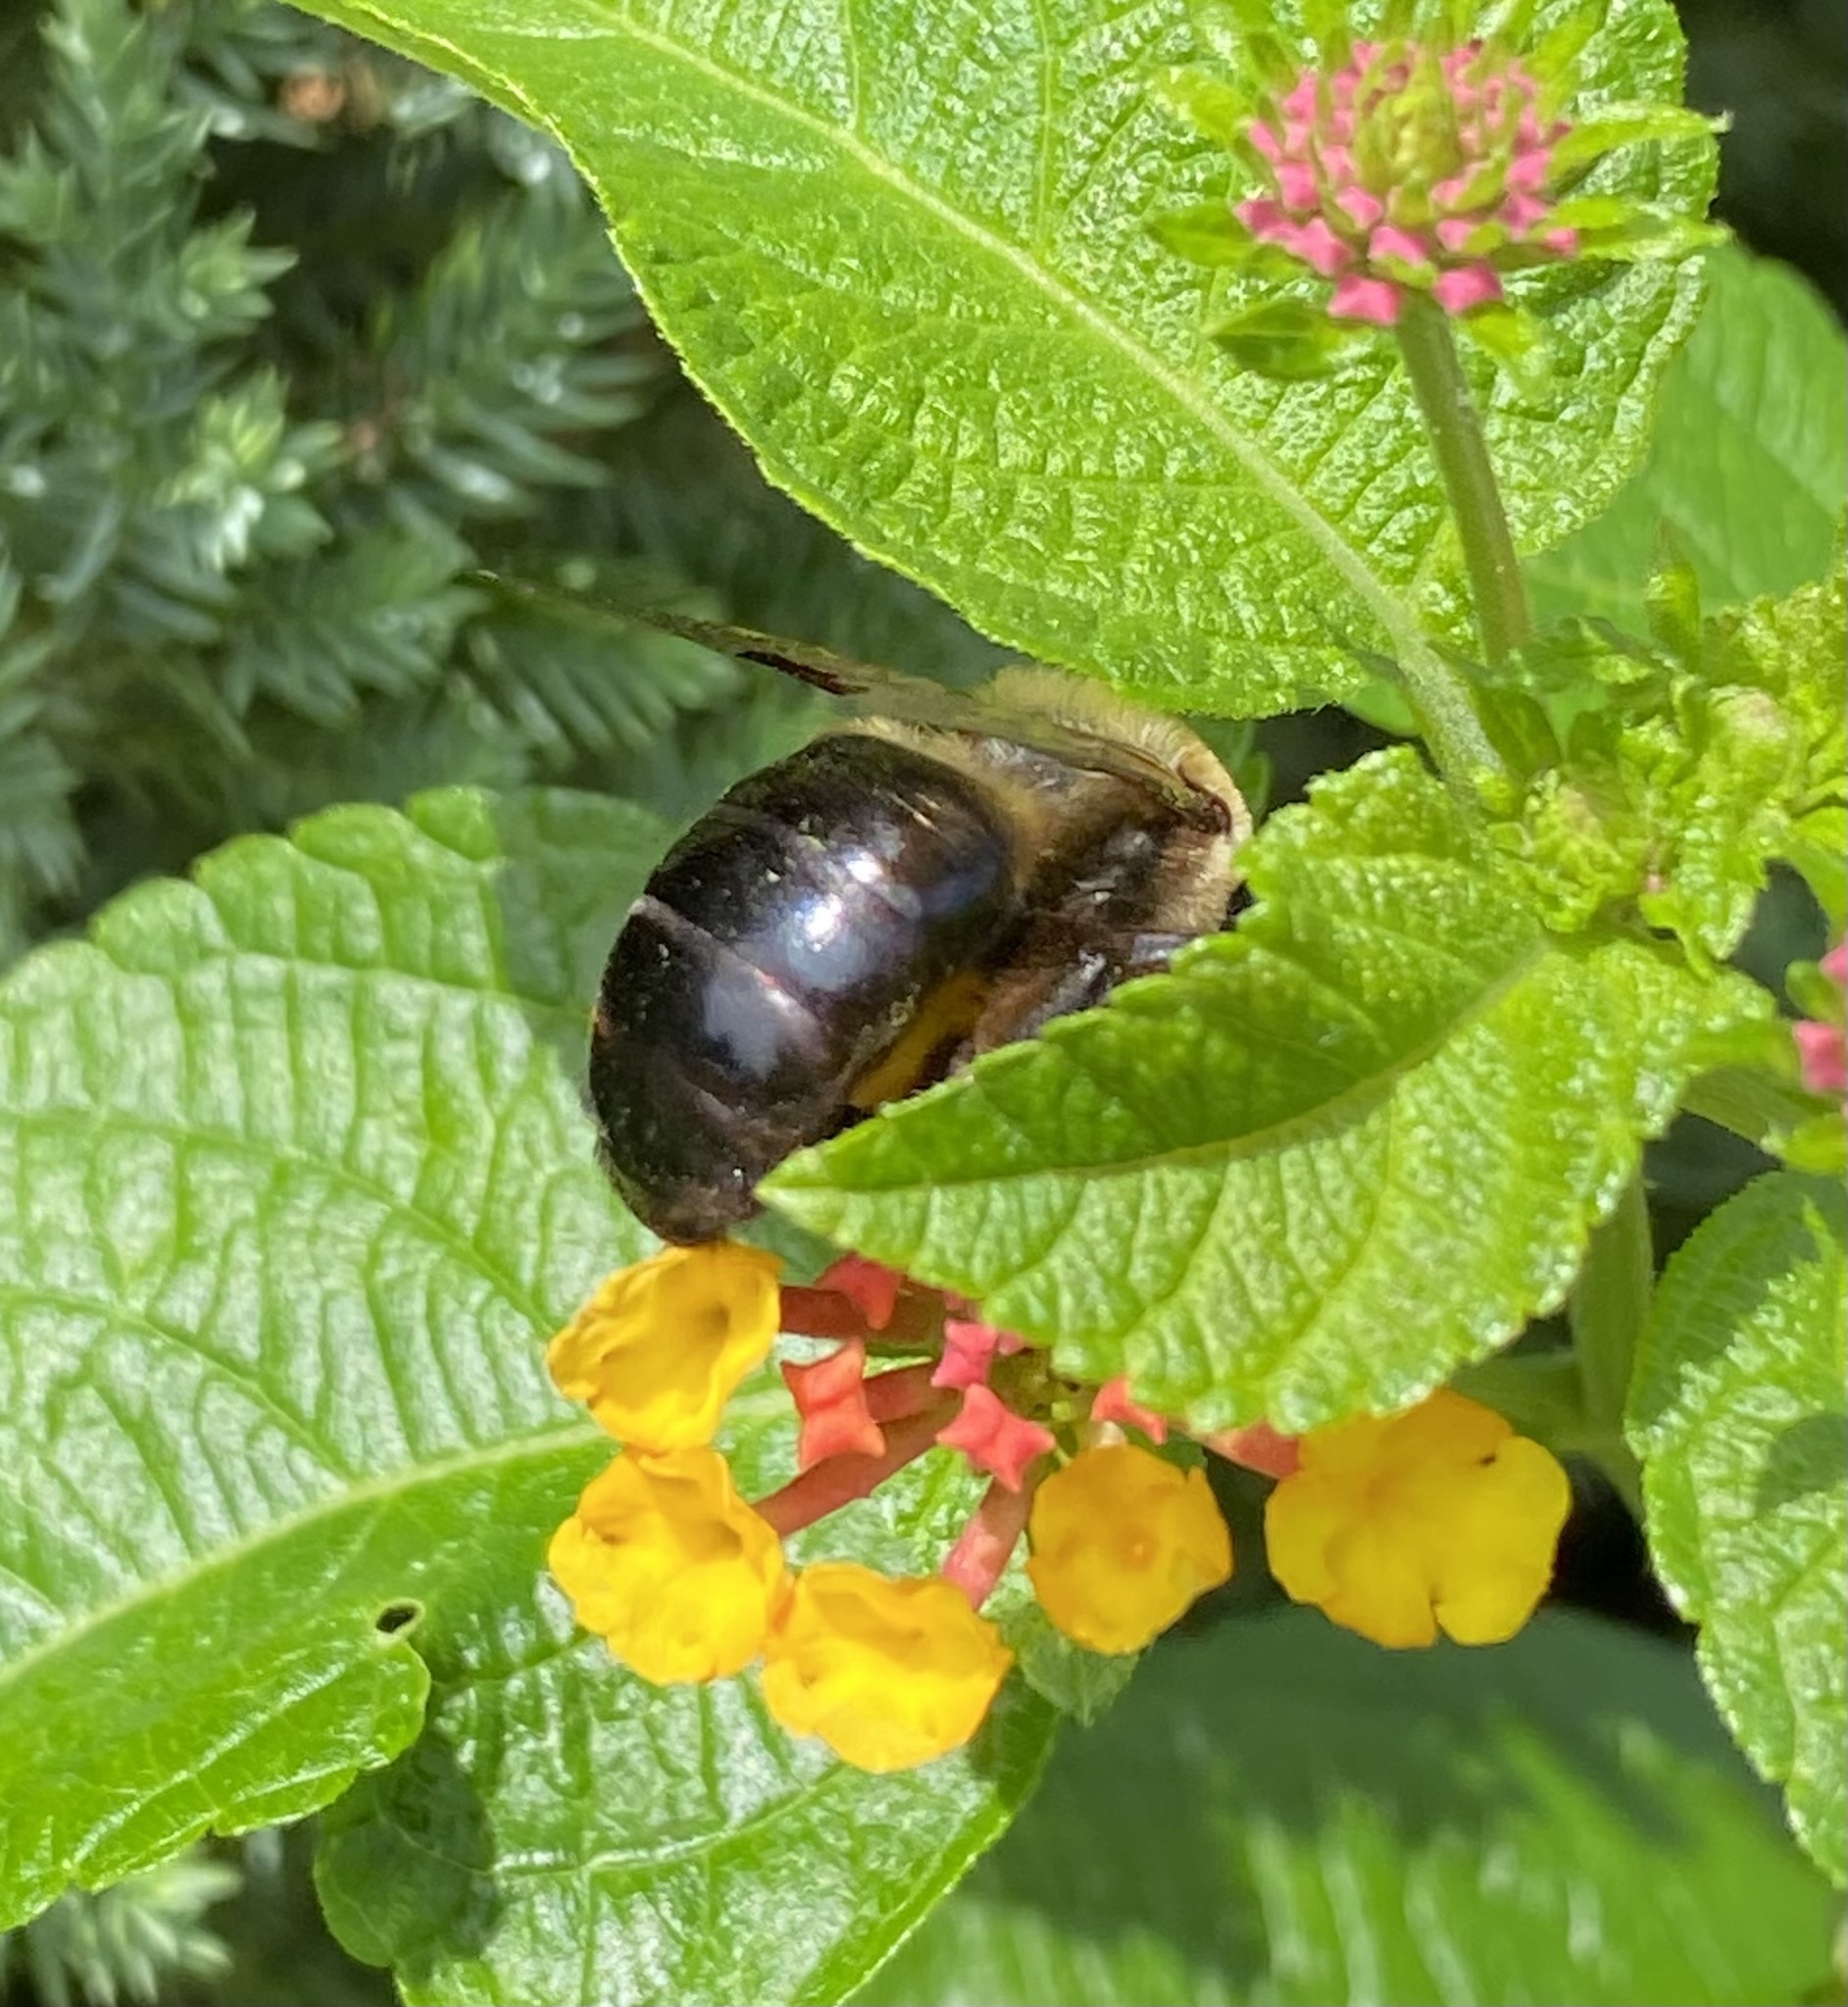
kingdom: Animalia
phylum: Arthropoda
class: Insecta
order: Hymenoptera
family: Apidae
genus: Xylocopa
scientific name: Xylocopa virginica
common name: Carpenter bee
